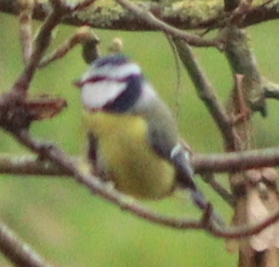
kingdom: Animalia
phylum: Chordata
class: Aves
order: Passeriformes
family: Paridae
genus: Cyanistes
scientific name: Cyanistes caeruleus
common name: Eurasian blue tit
